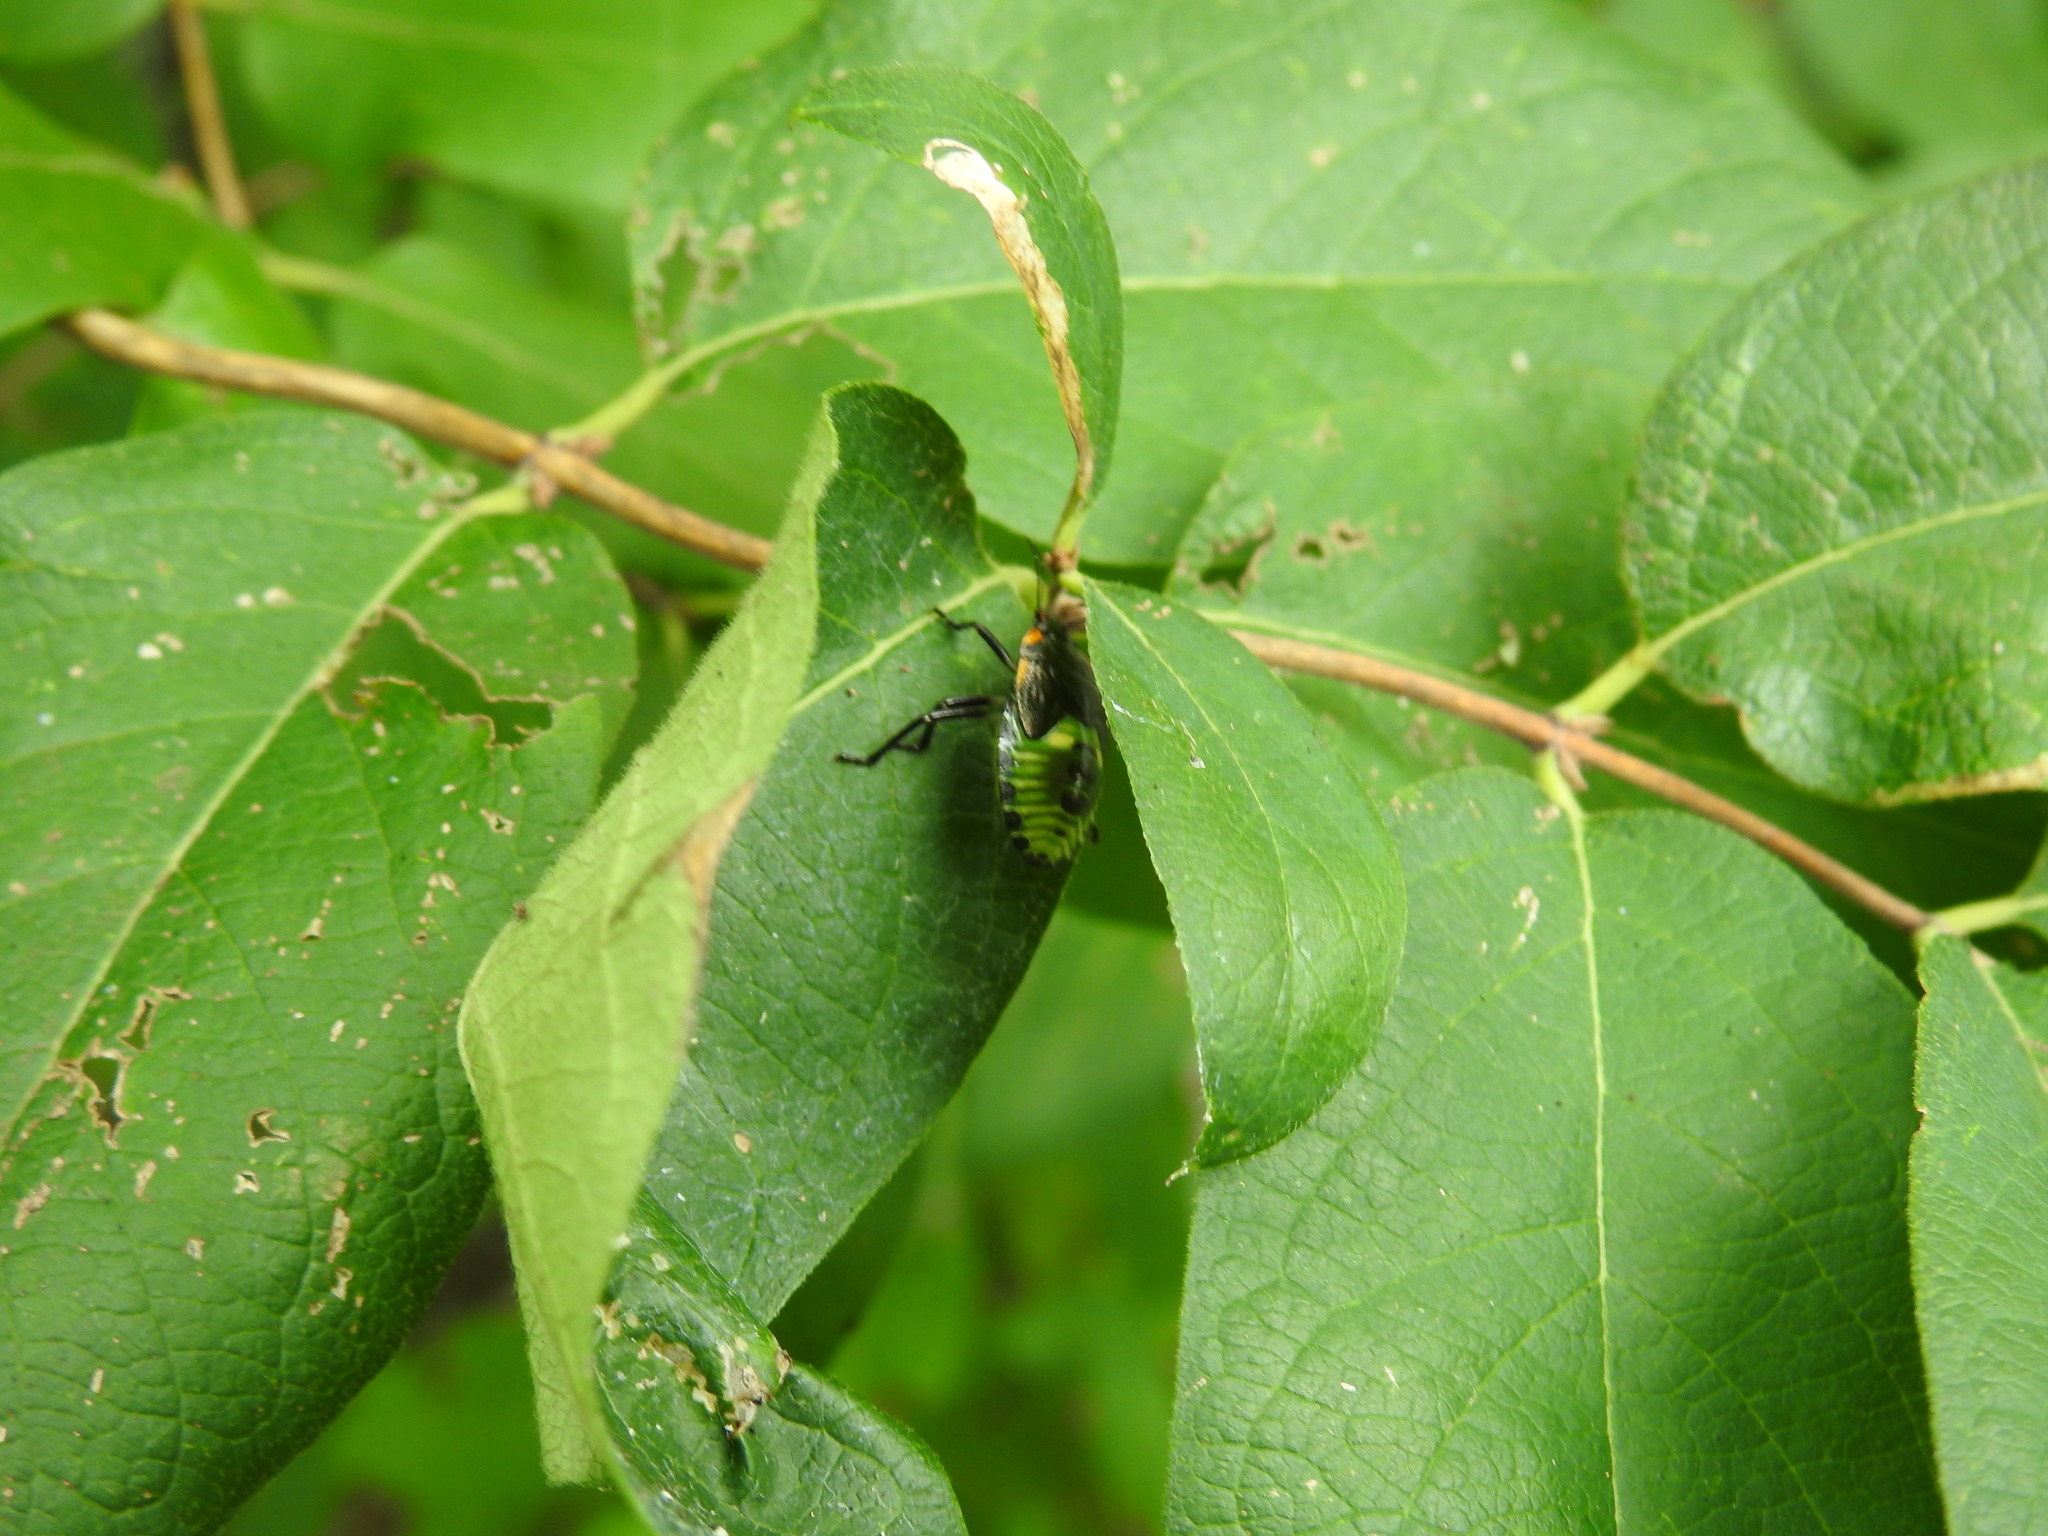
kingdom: Animalia
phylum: Arthropoda
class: Insecta
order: Hemiptera
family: Pentatomidae
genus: Chinavia
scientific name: Chinavia hilaris
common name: Green stink bug
